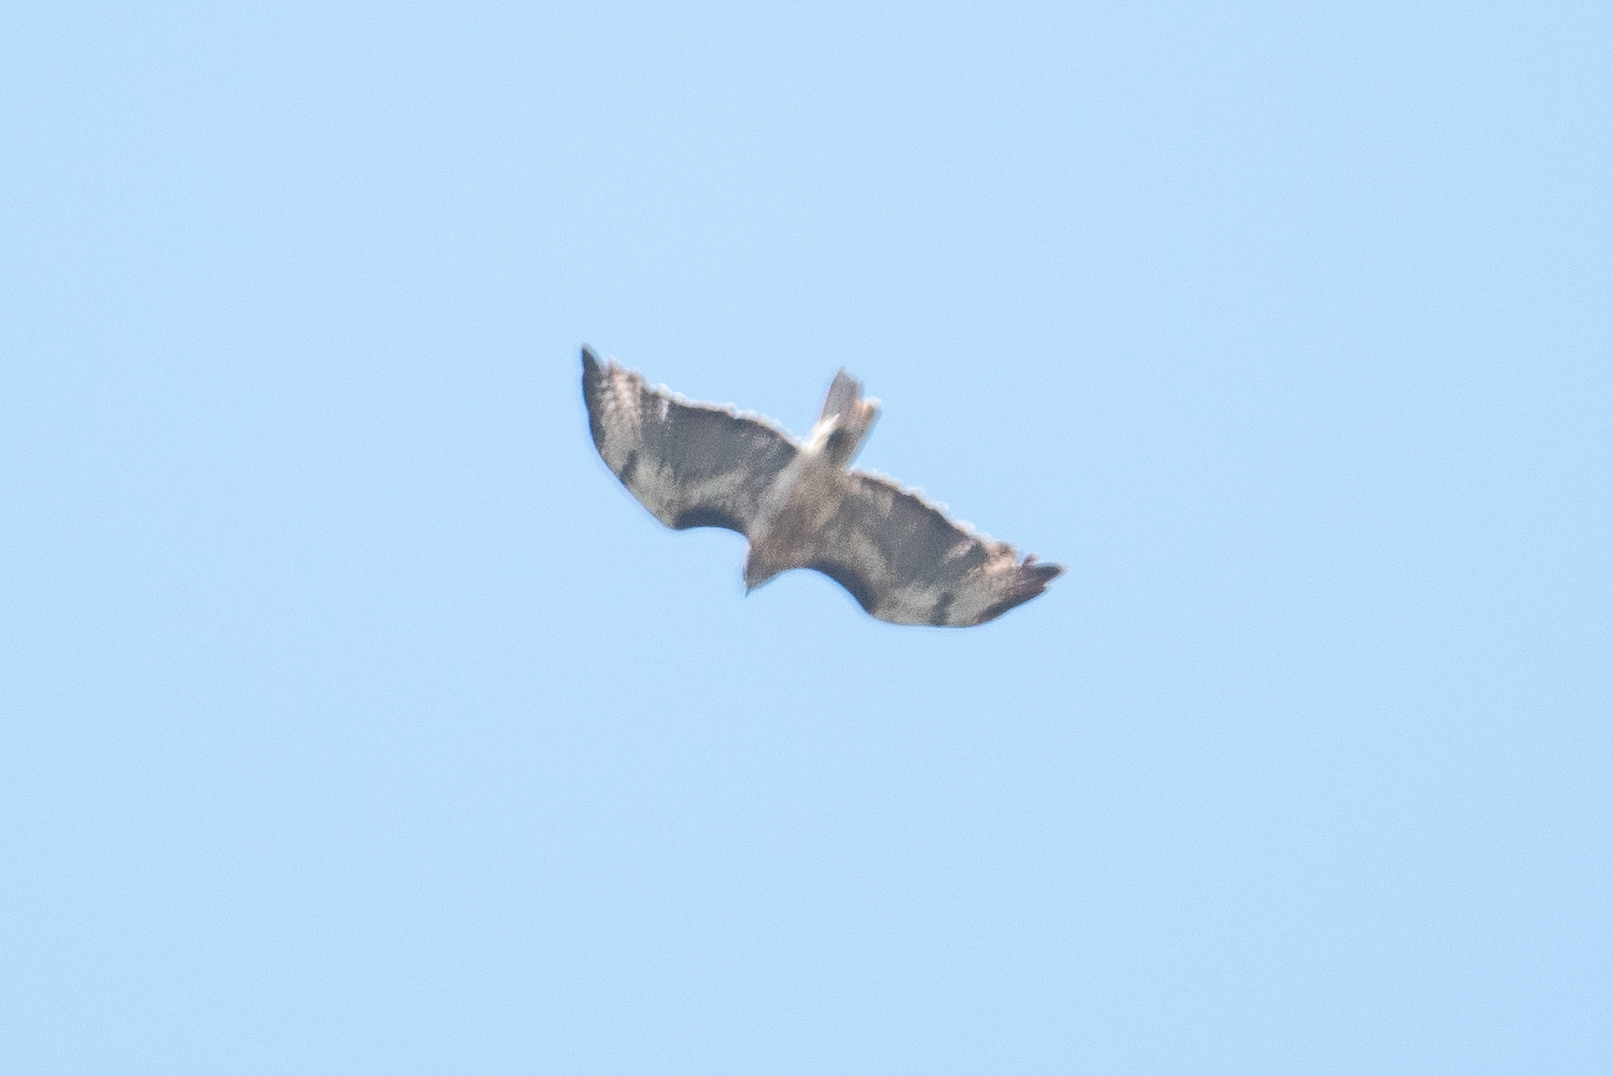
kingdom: Animalia
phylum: Chordata
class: Aves
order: Accipitriformes
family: Accipitridae
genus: Buteo
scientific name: Buteo jamaicensis
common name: Red-tailed hawk
